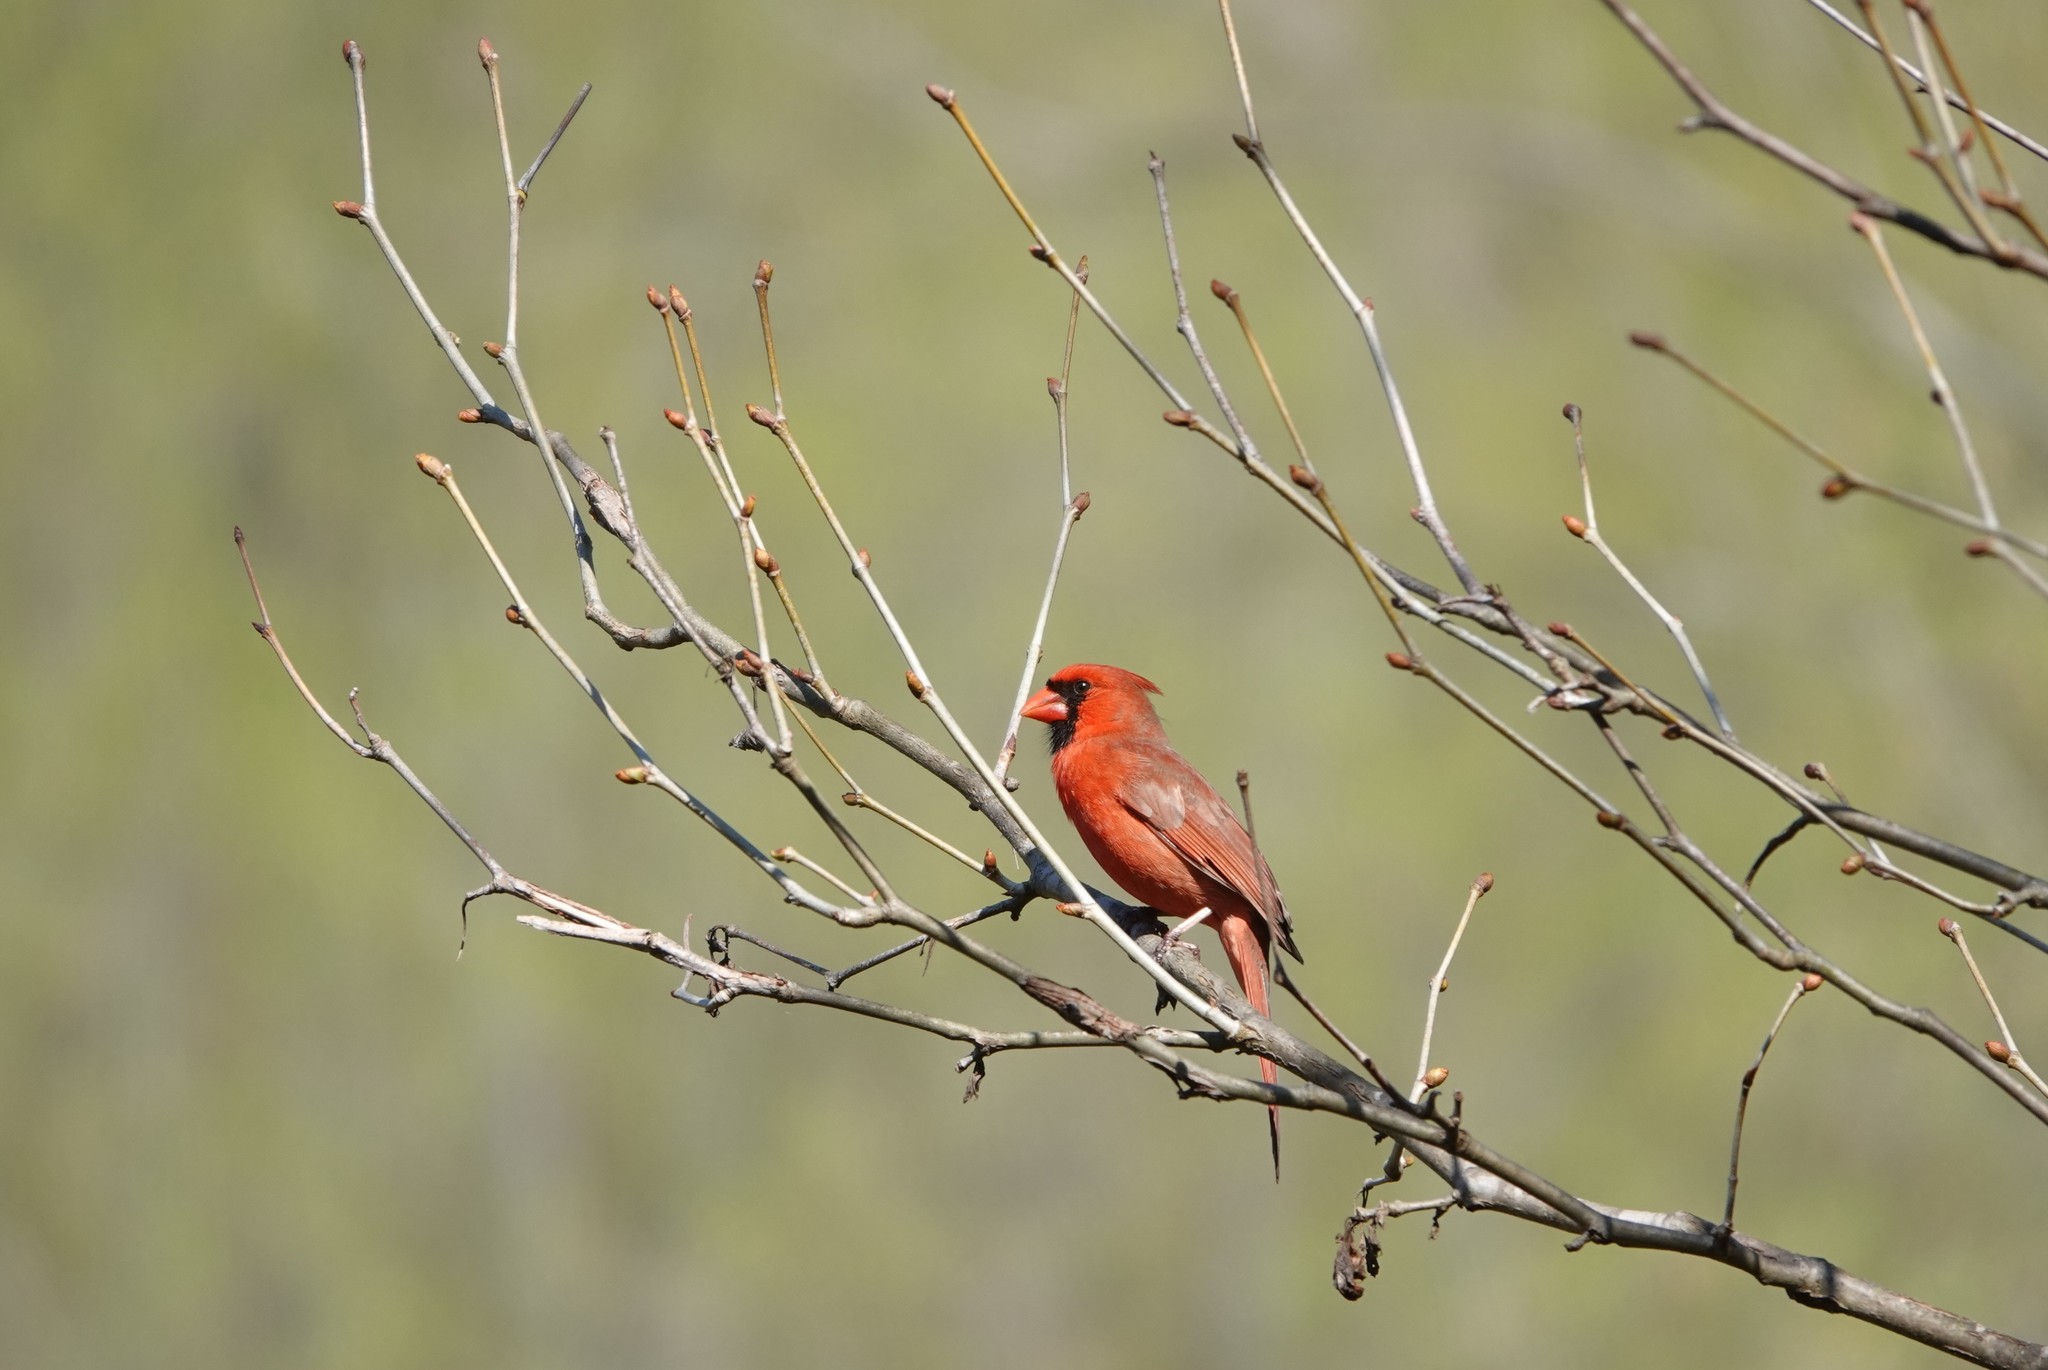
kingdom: Animalia
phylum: Chordata
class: Aves
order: Passeriformes
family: Cardinalidae
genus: Cardinalis
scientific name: Cardinalis cardinalis
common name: Northern cardinal
